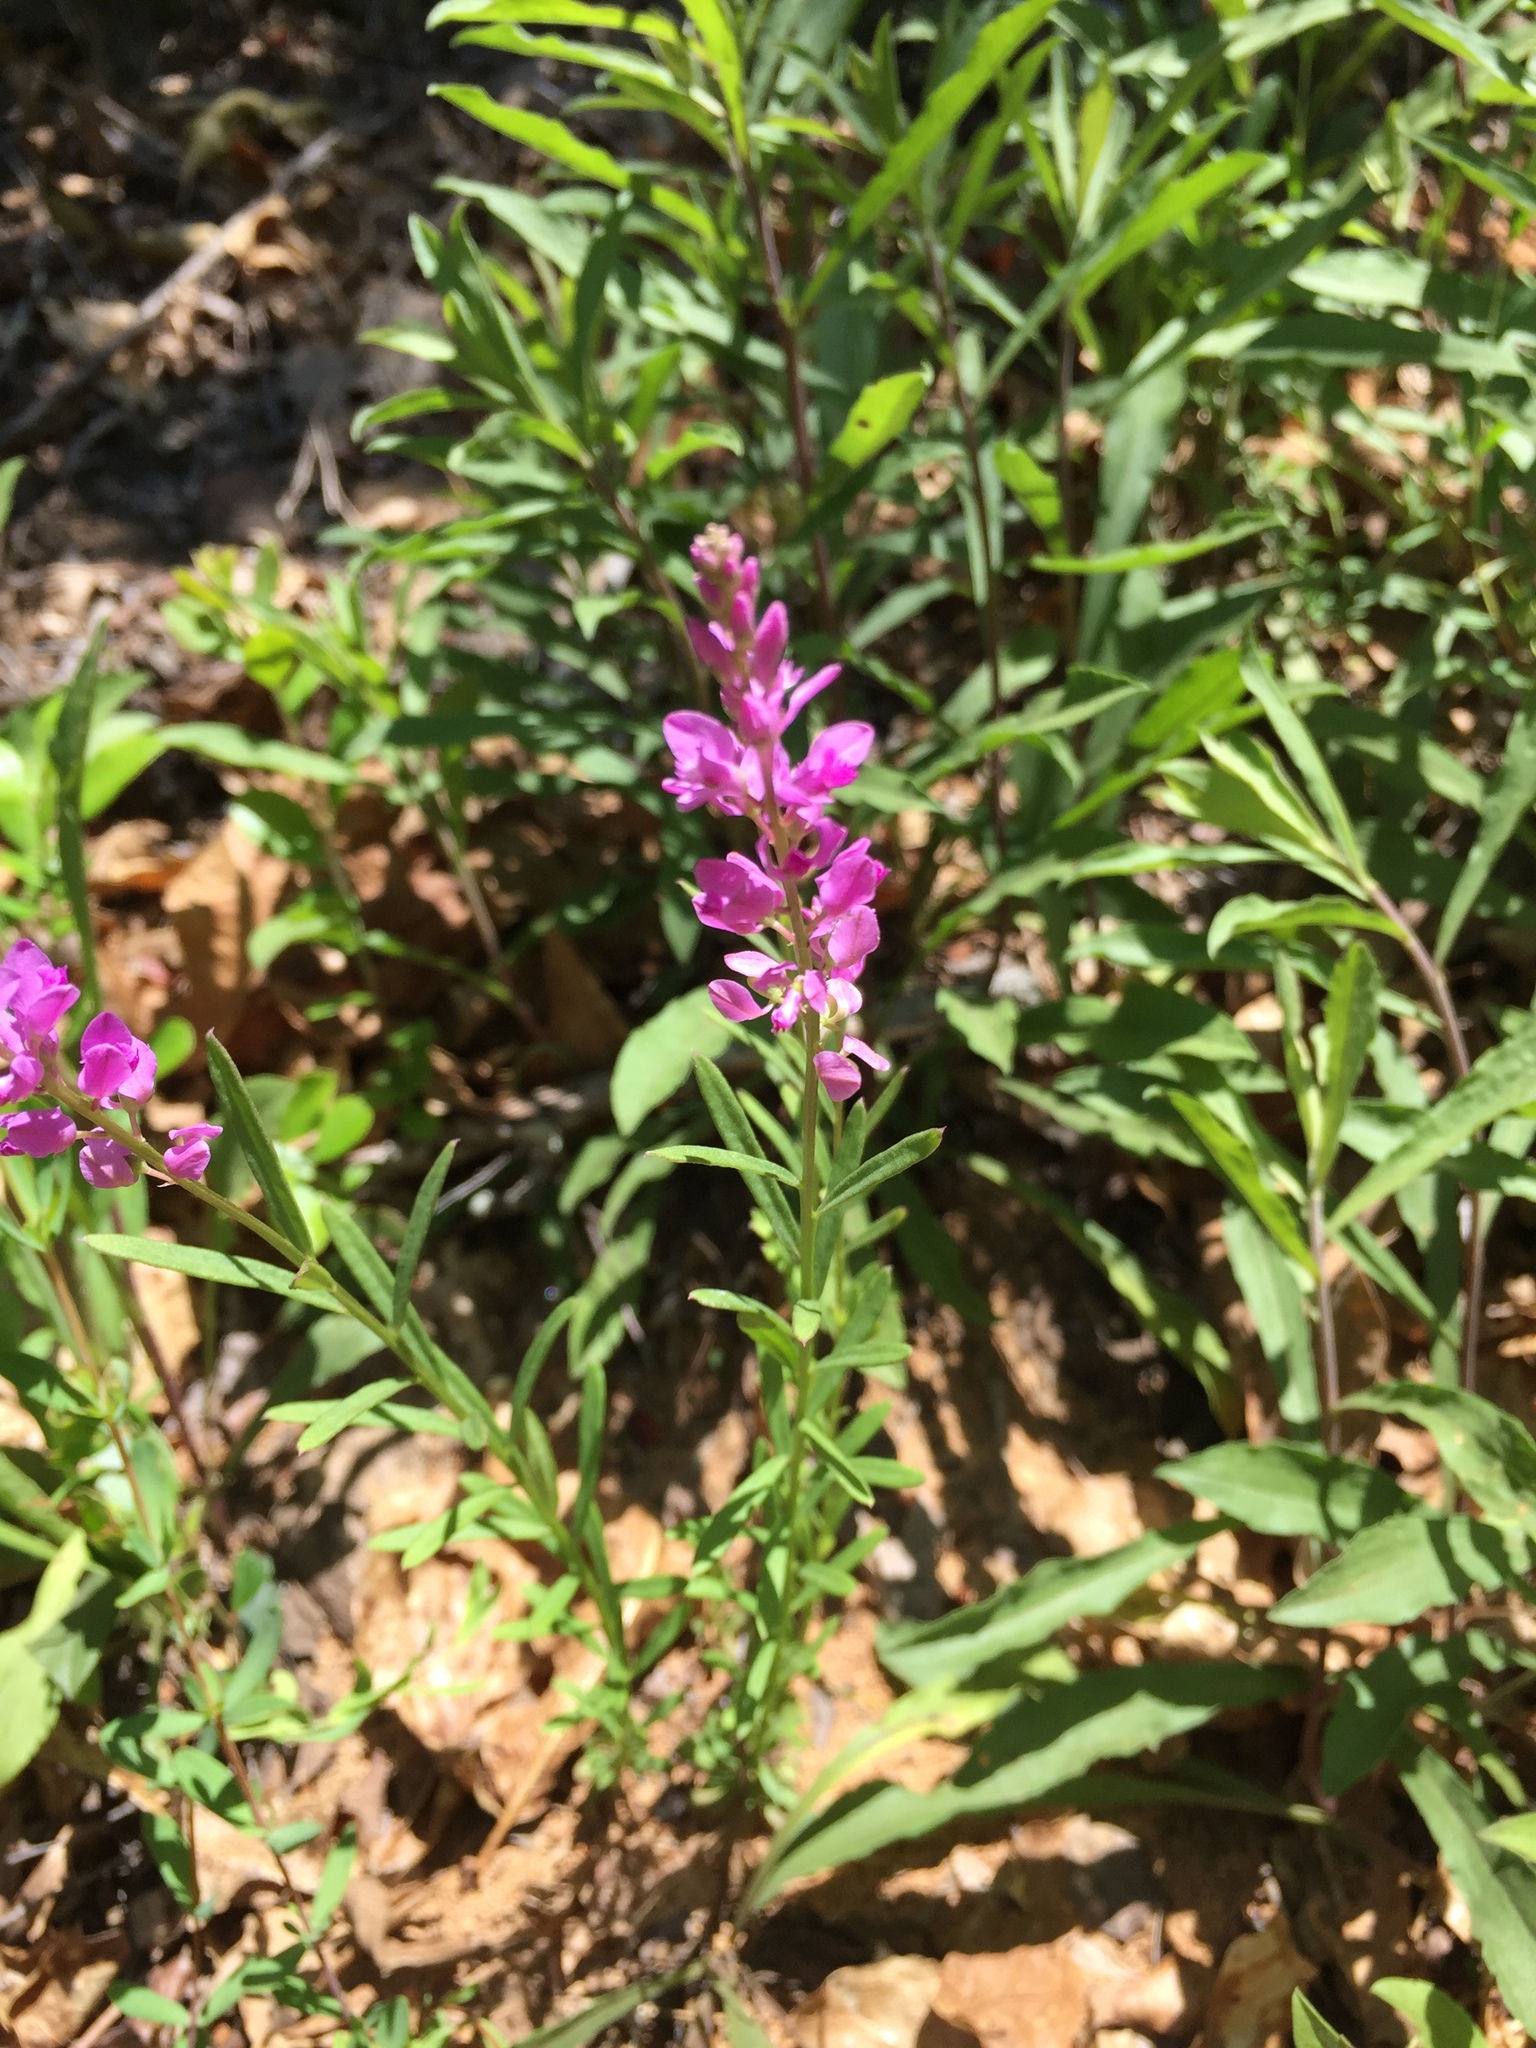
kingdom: Plantae
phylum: Tracheophyta
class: Magnoliopsida
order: Fabales
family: Polygalaceae
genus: Polygala
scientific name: Polygala polygama
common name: Bitter milkwort
